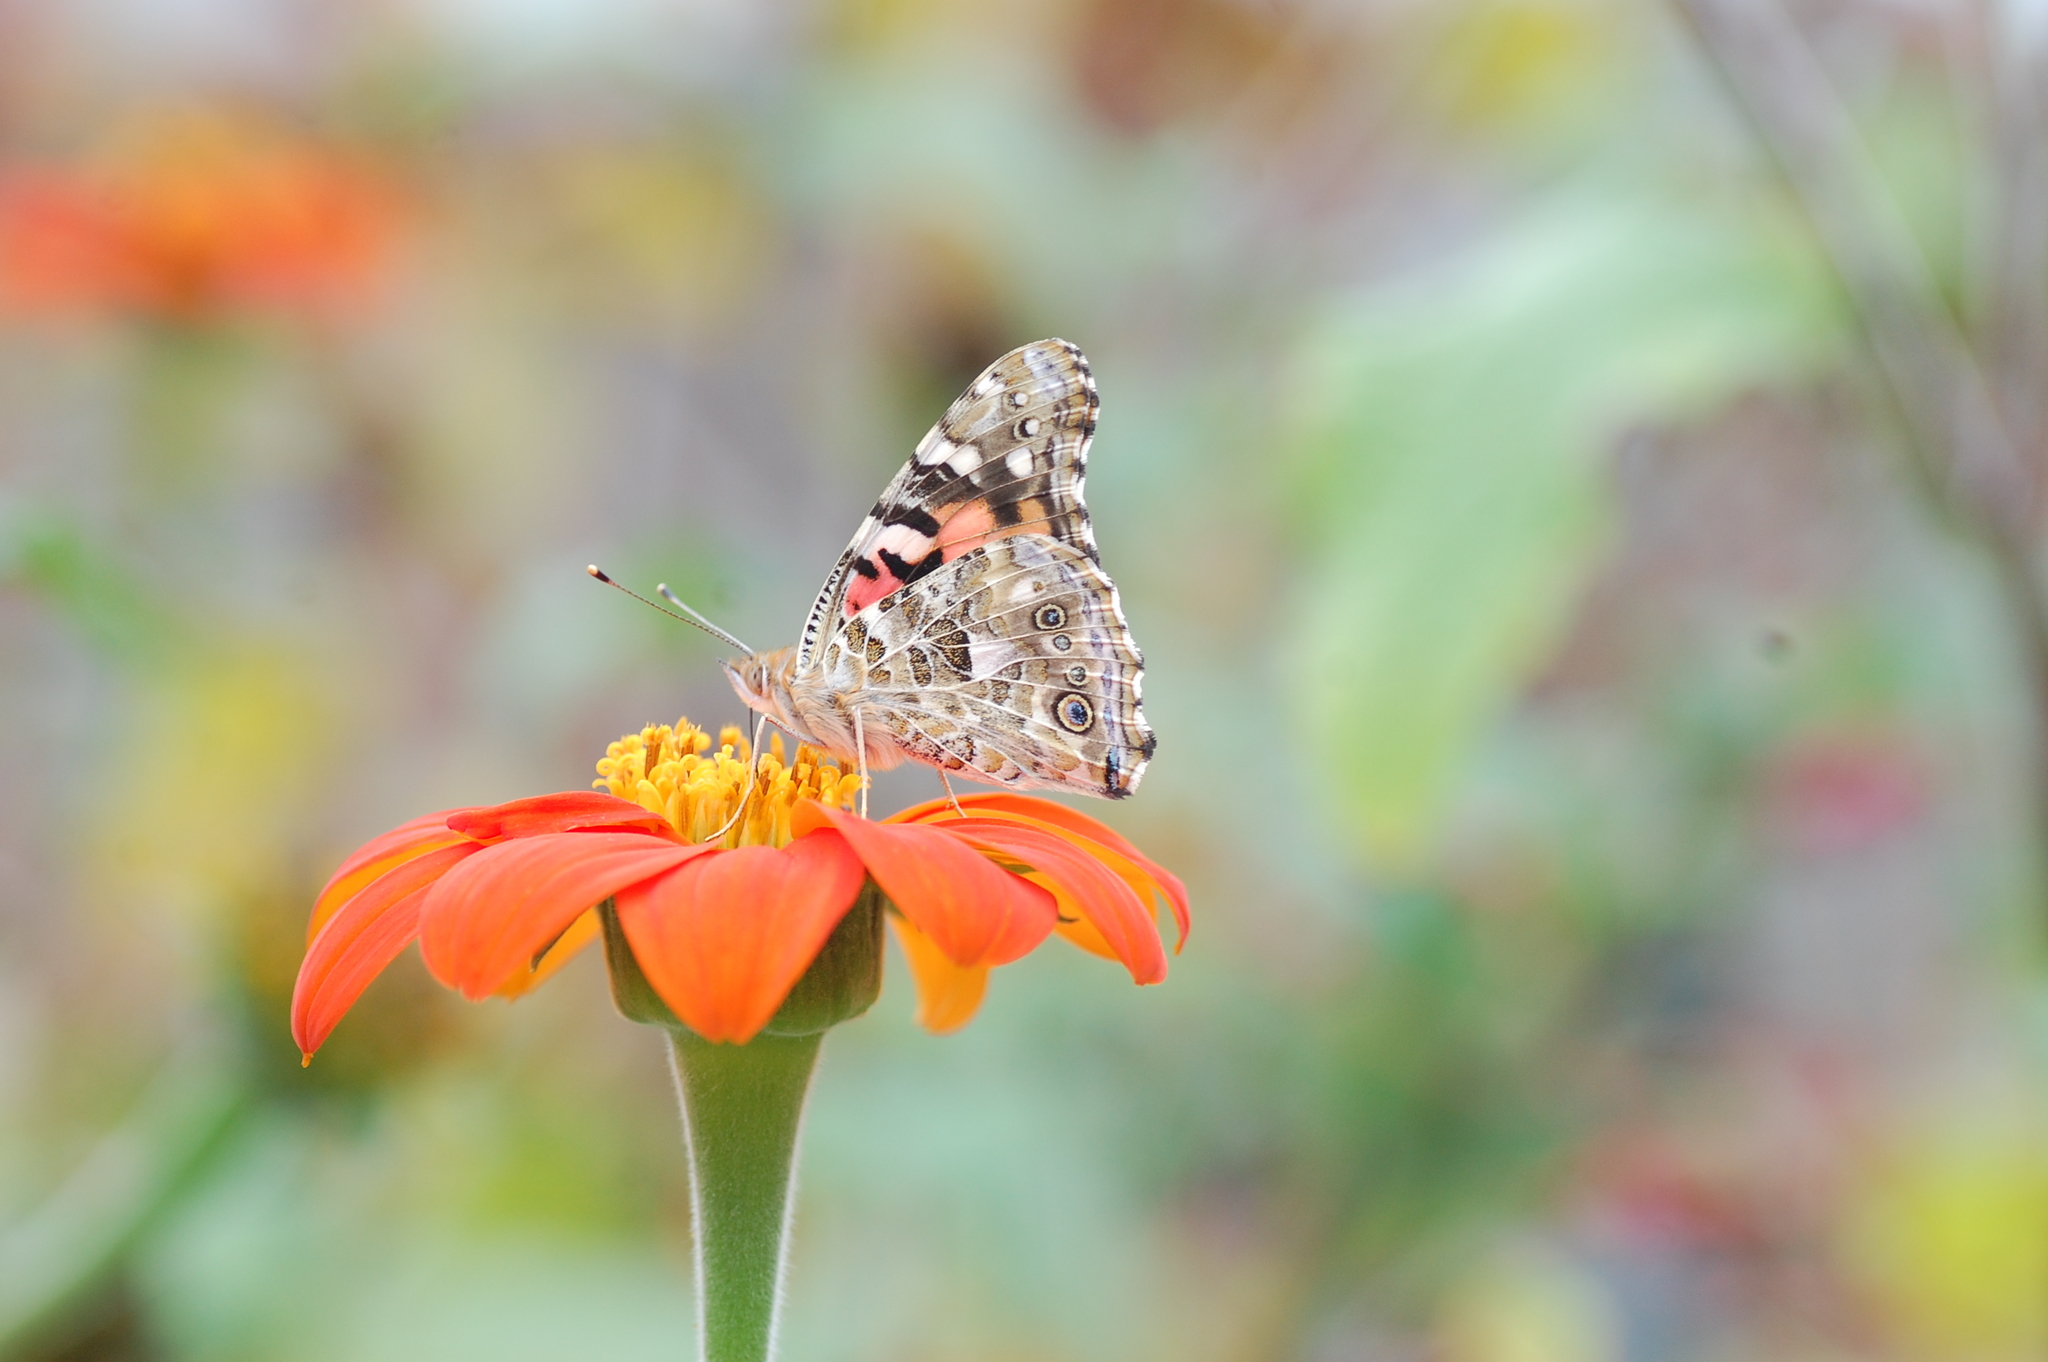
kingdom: Animalia
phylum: Arthropoda
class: Insecta
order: Lepidoptera
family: Nymphalidae
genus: Vanessa
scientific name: Vanessa cardui
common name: Painted lady
